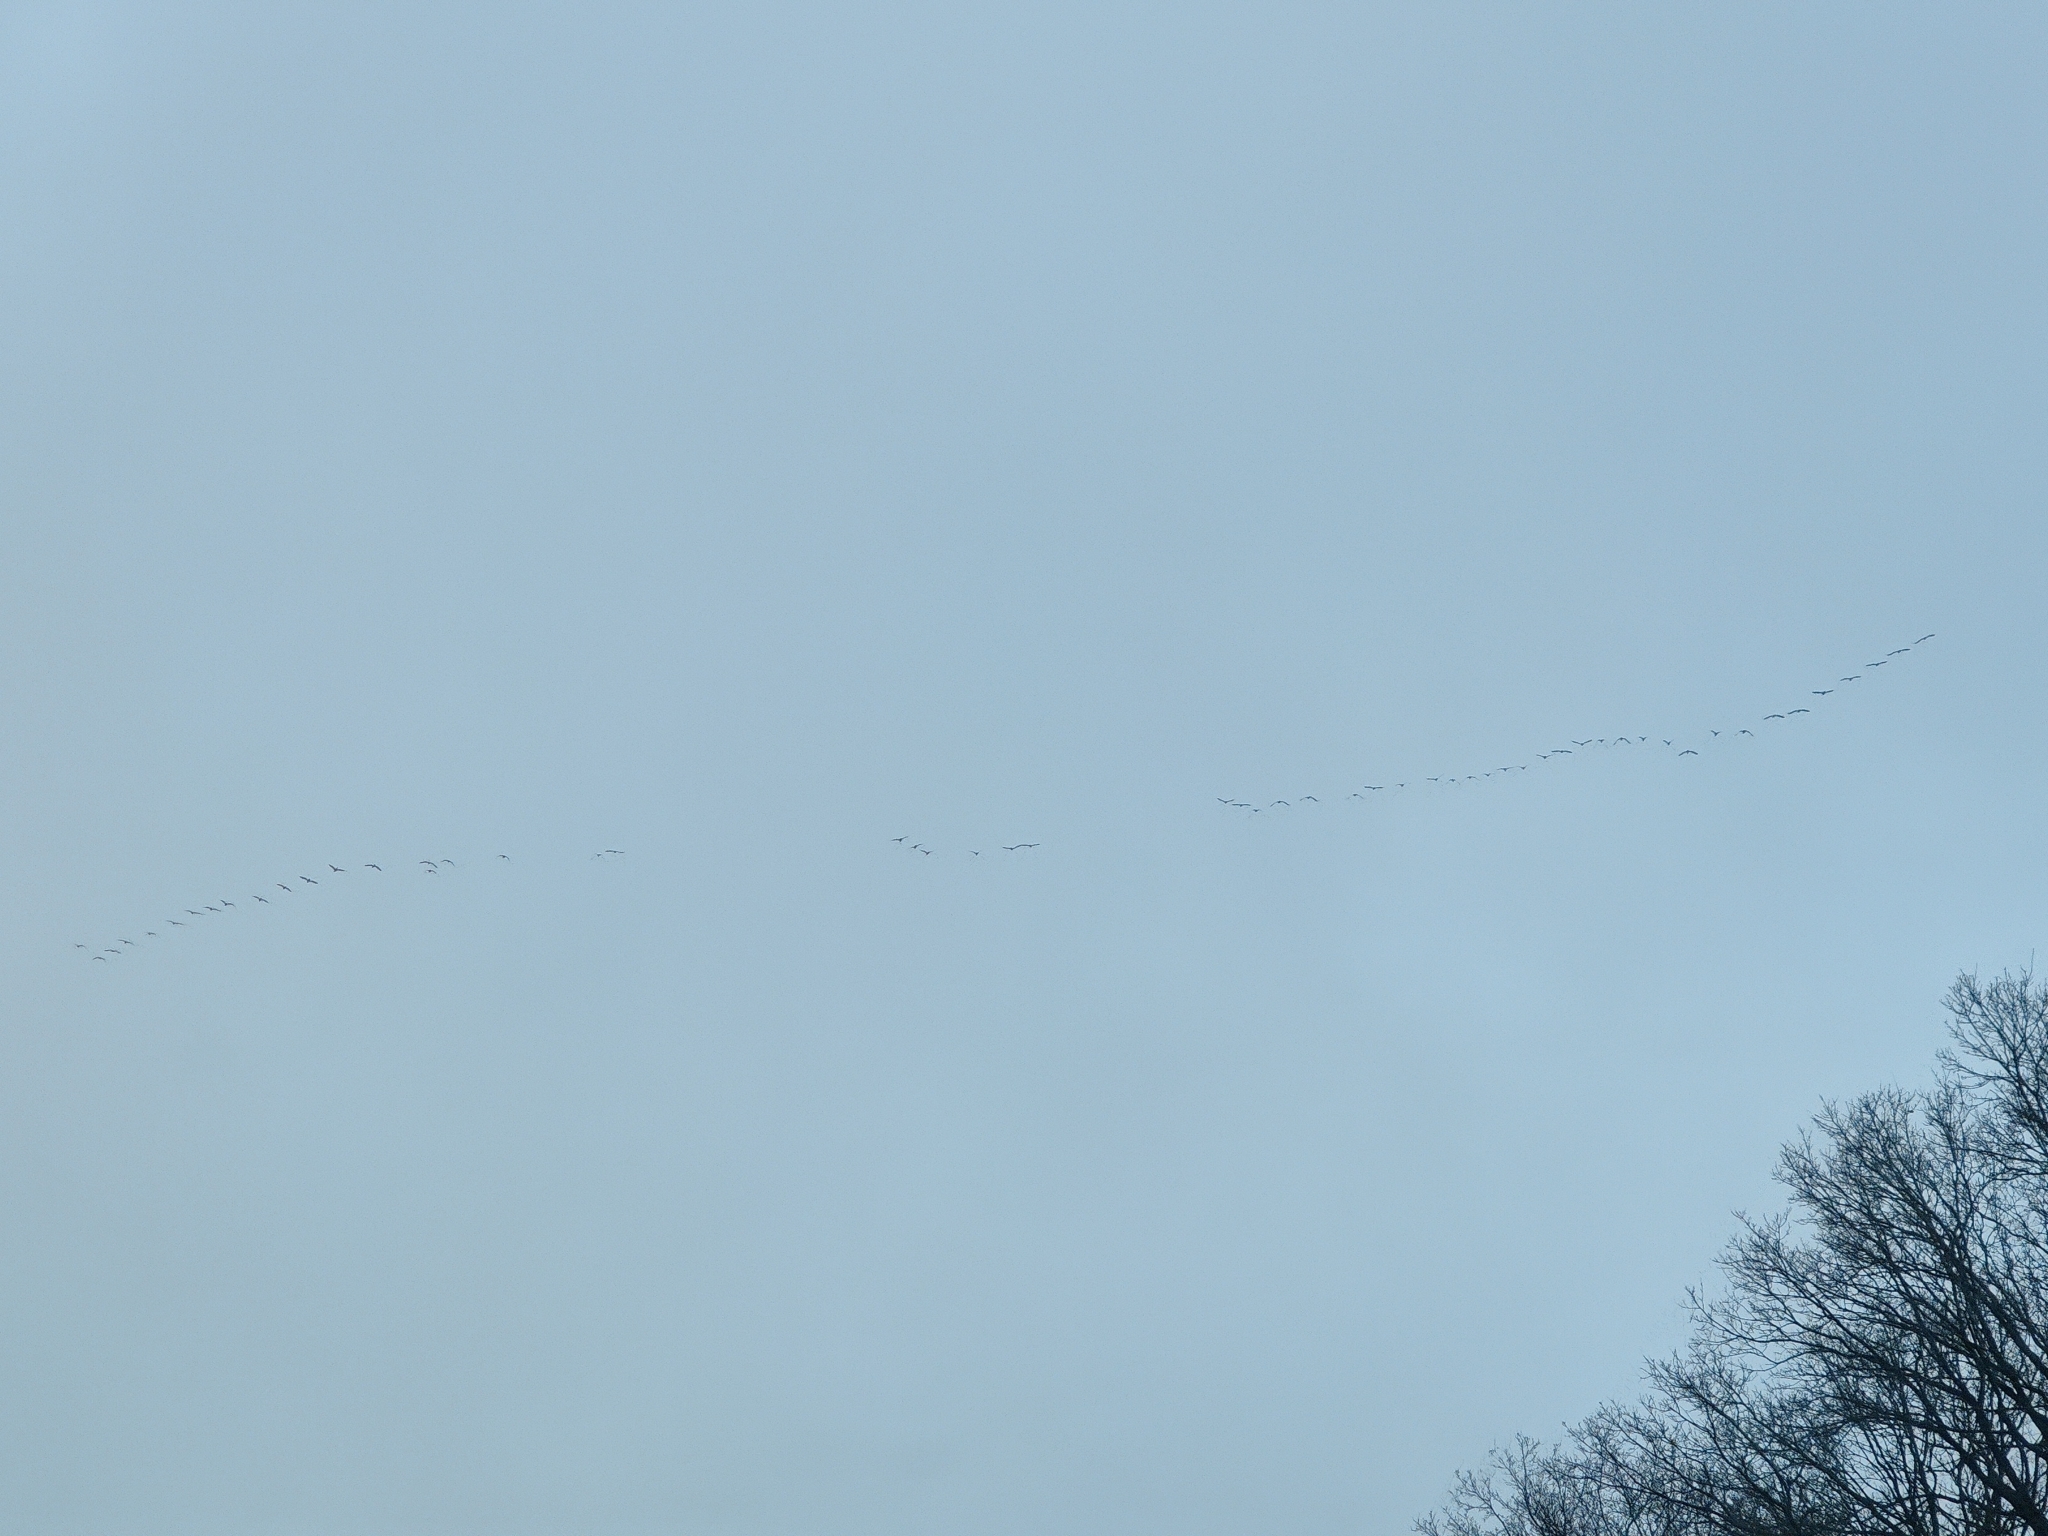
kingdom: Animalia
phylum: Chordata
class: Aves
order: Gruiformes
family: Gruidae
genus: Grus
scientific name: Grus grus
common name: Common crane
